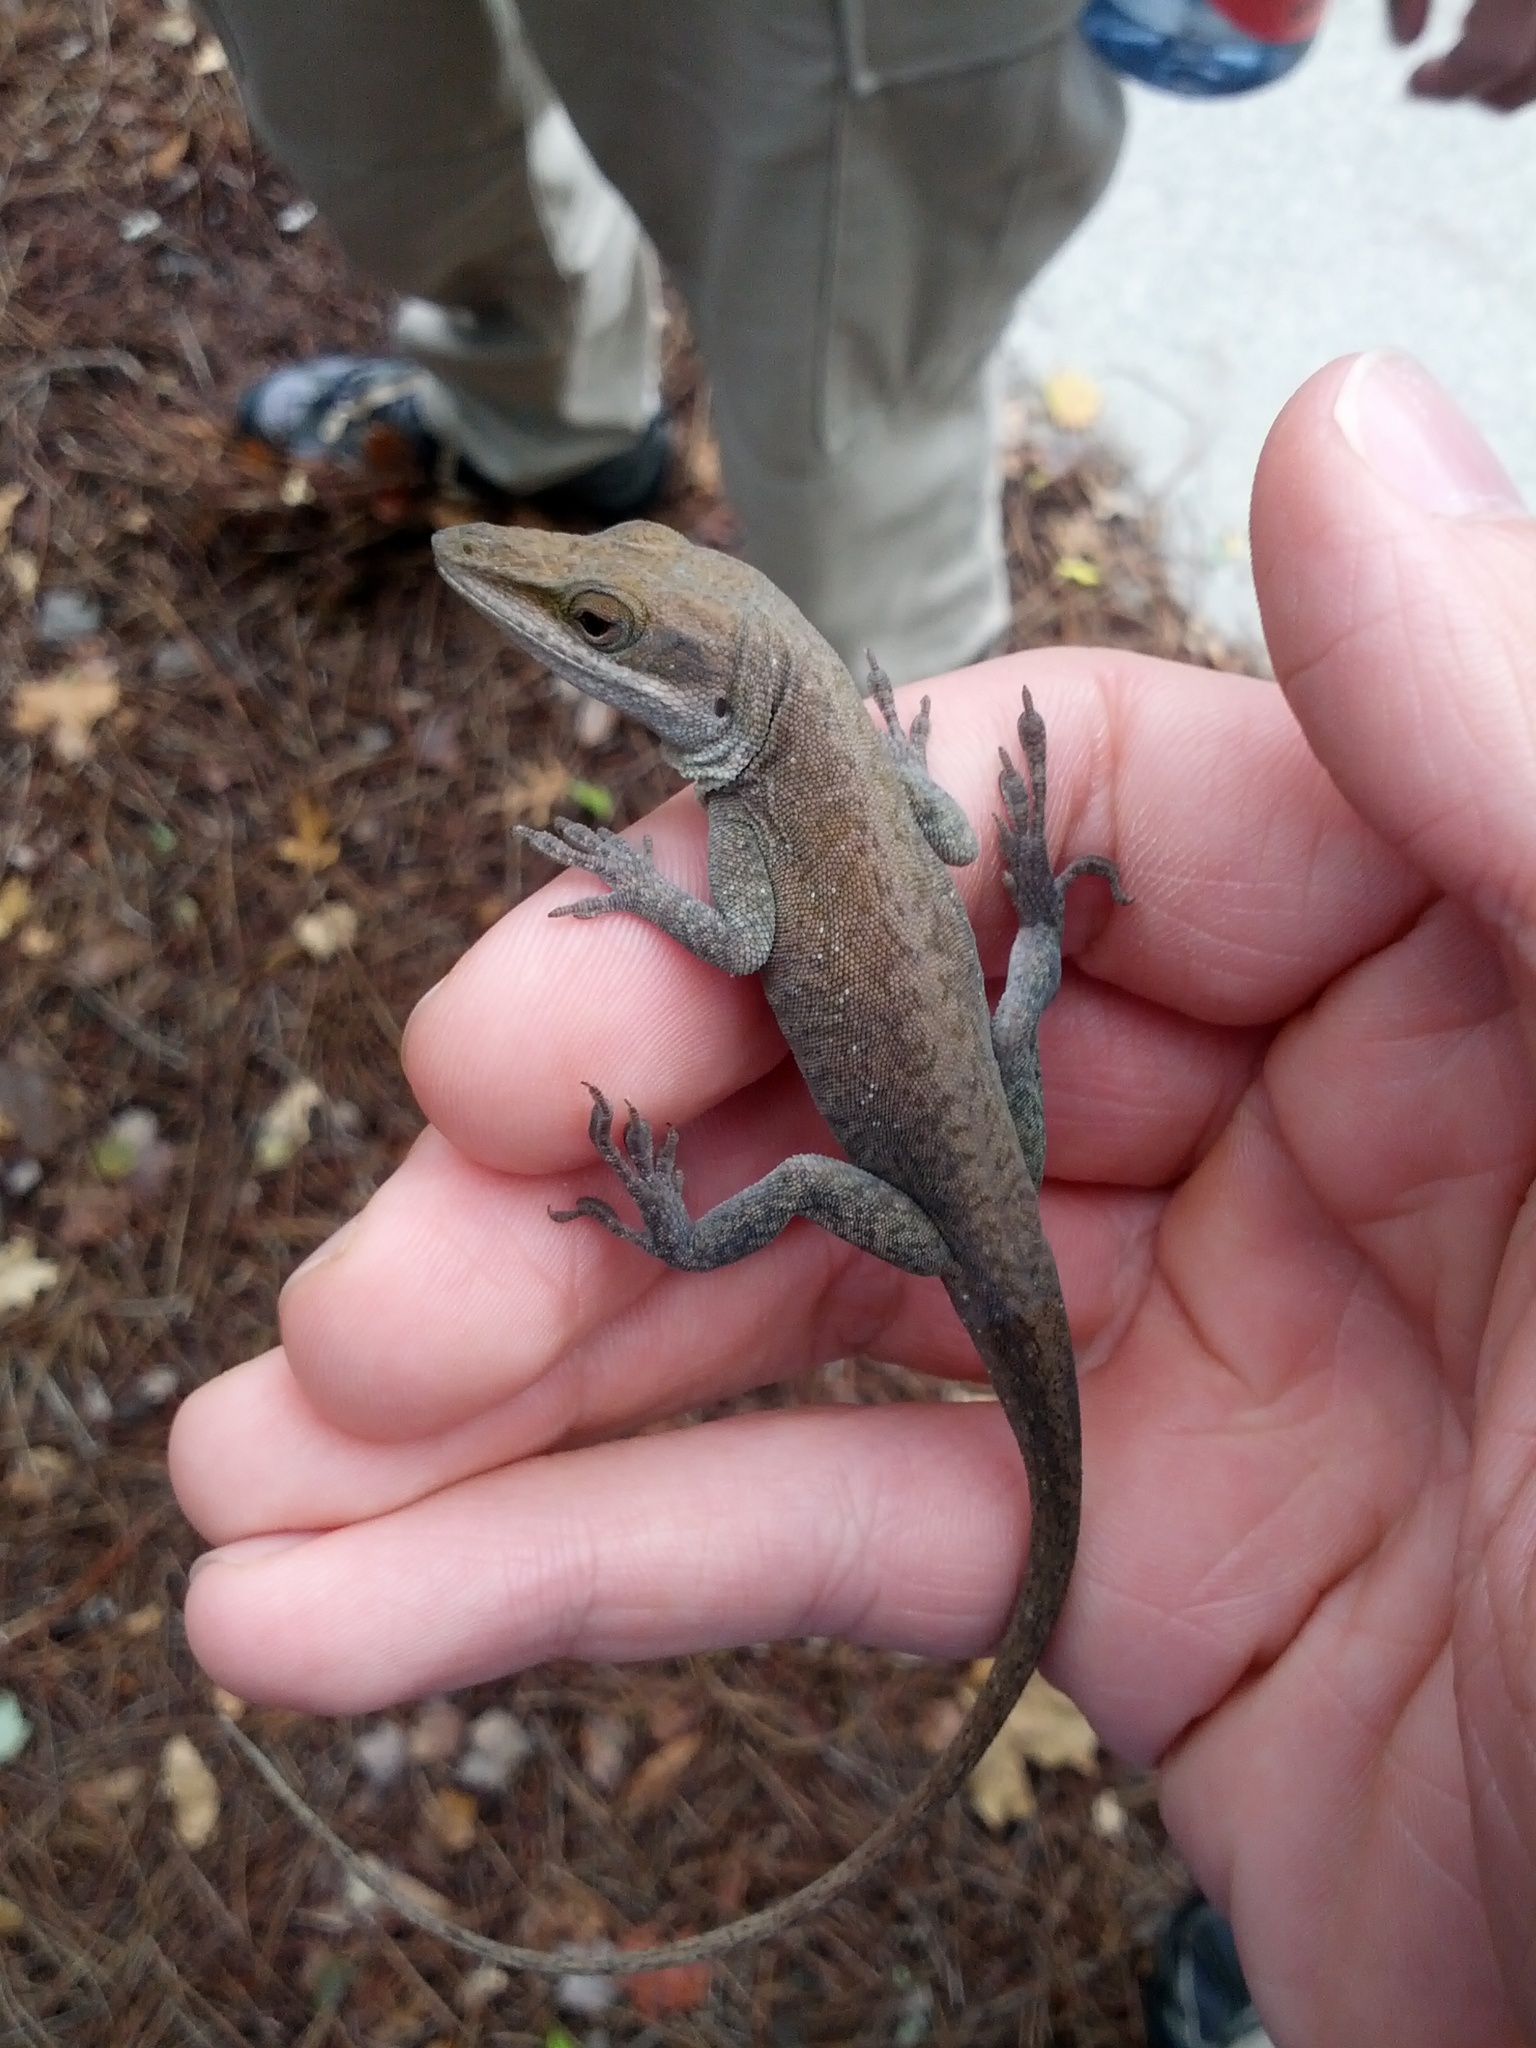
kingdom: Animalia
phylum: Chordata
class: Squamata
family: Dactyloidae
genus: Anolis
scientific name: Anolis carolinensis
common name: Green anole
